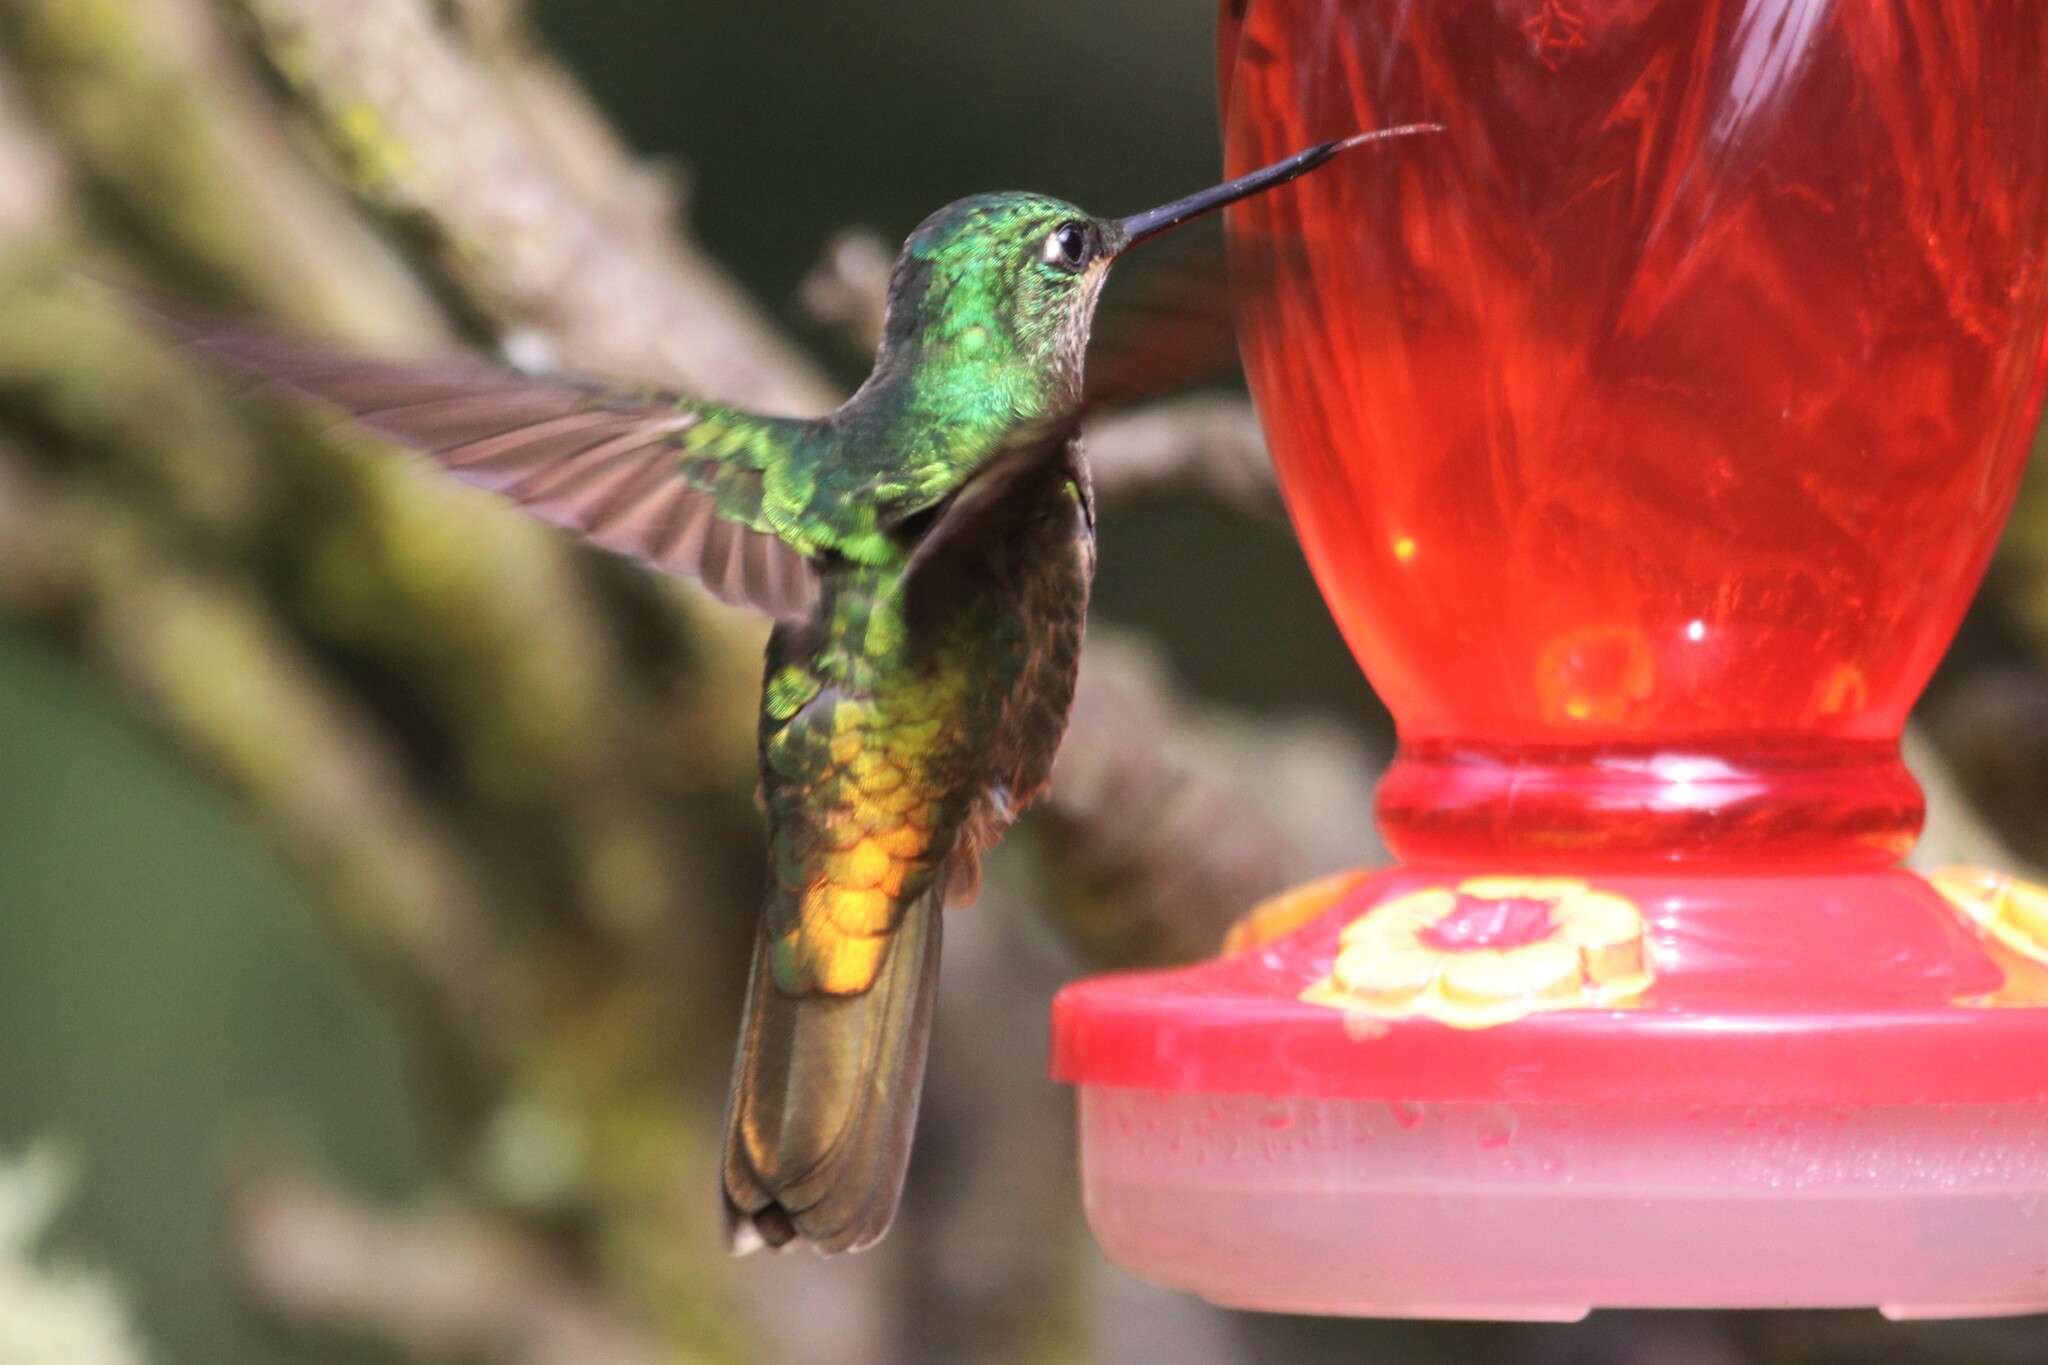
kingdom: Animalia
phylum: Chordata
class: Aves
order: Apodiformes
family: Trochilidae
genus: Coeligena
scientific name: Coeligena bonapartei
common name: Golden-bellied starfrontlet
